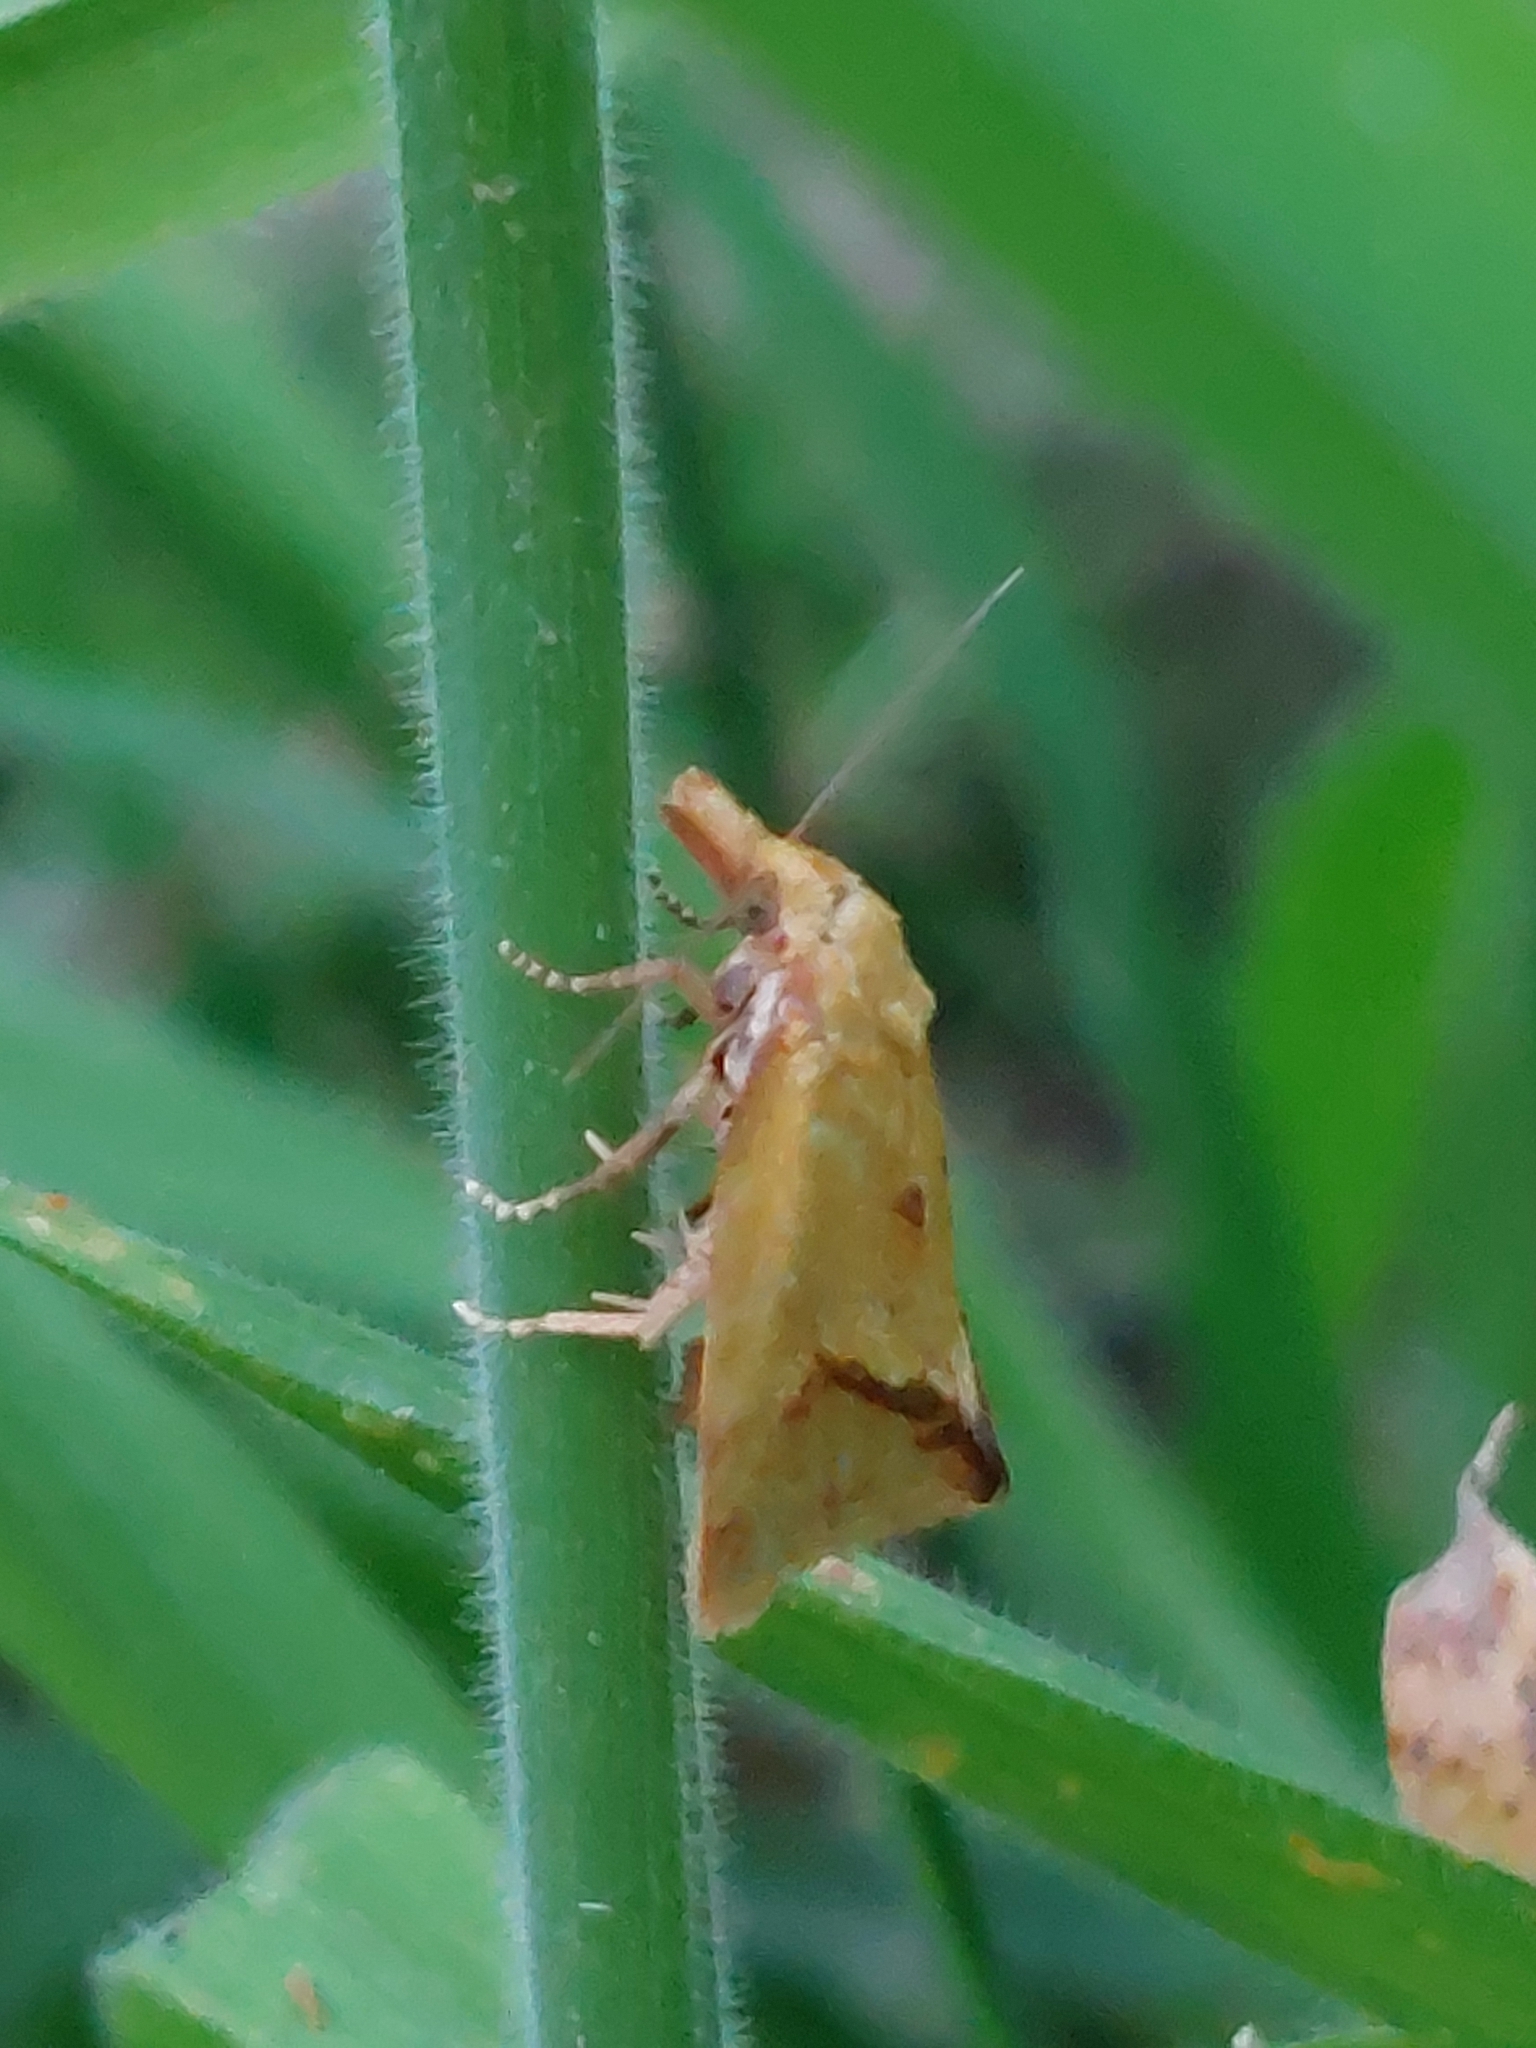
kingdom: Animalia
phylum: Arthropoda
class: Insecta
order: Lepidoptera
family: Tortricidae
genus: Agapeta
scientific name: Agapeta hamana
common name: Common yellow conch
